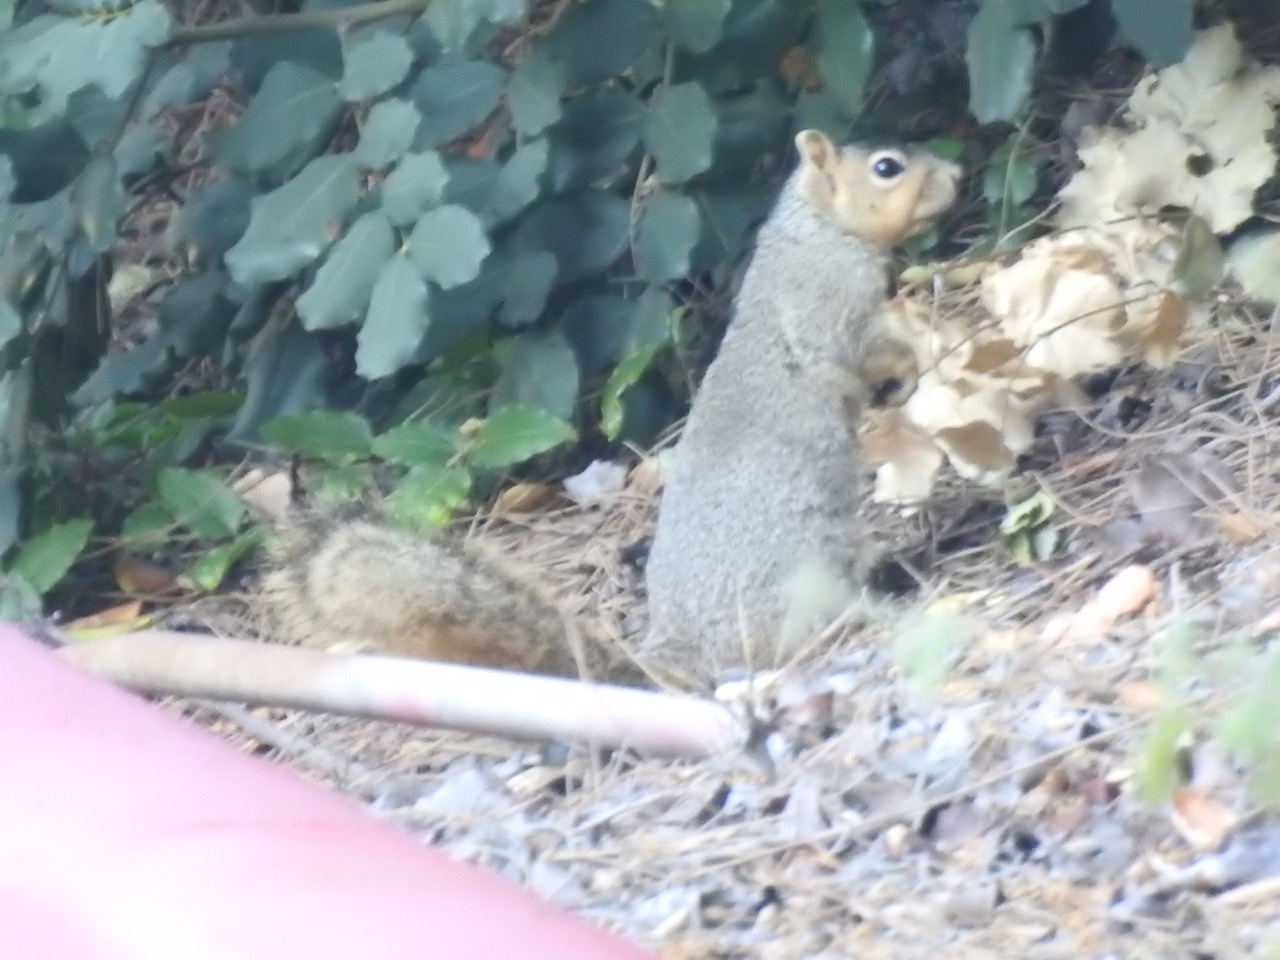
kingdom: Animalia
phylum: Chordata
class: Mammalia
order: Rodentia
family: Sciuridae
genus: Sciurus
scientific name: Sciurus niger
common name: Fox squirrel
